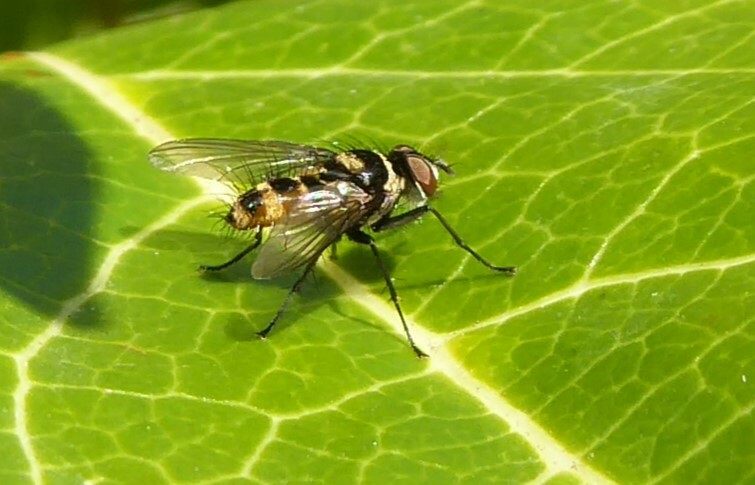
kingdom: Animalia
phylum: Arthropoda
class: Insecta
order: Diptera
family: Tachinidae
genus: Trigonospila
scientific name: Trigonospila brevifacies
